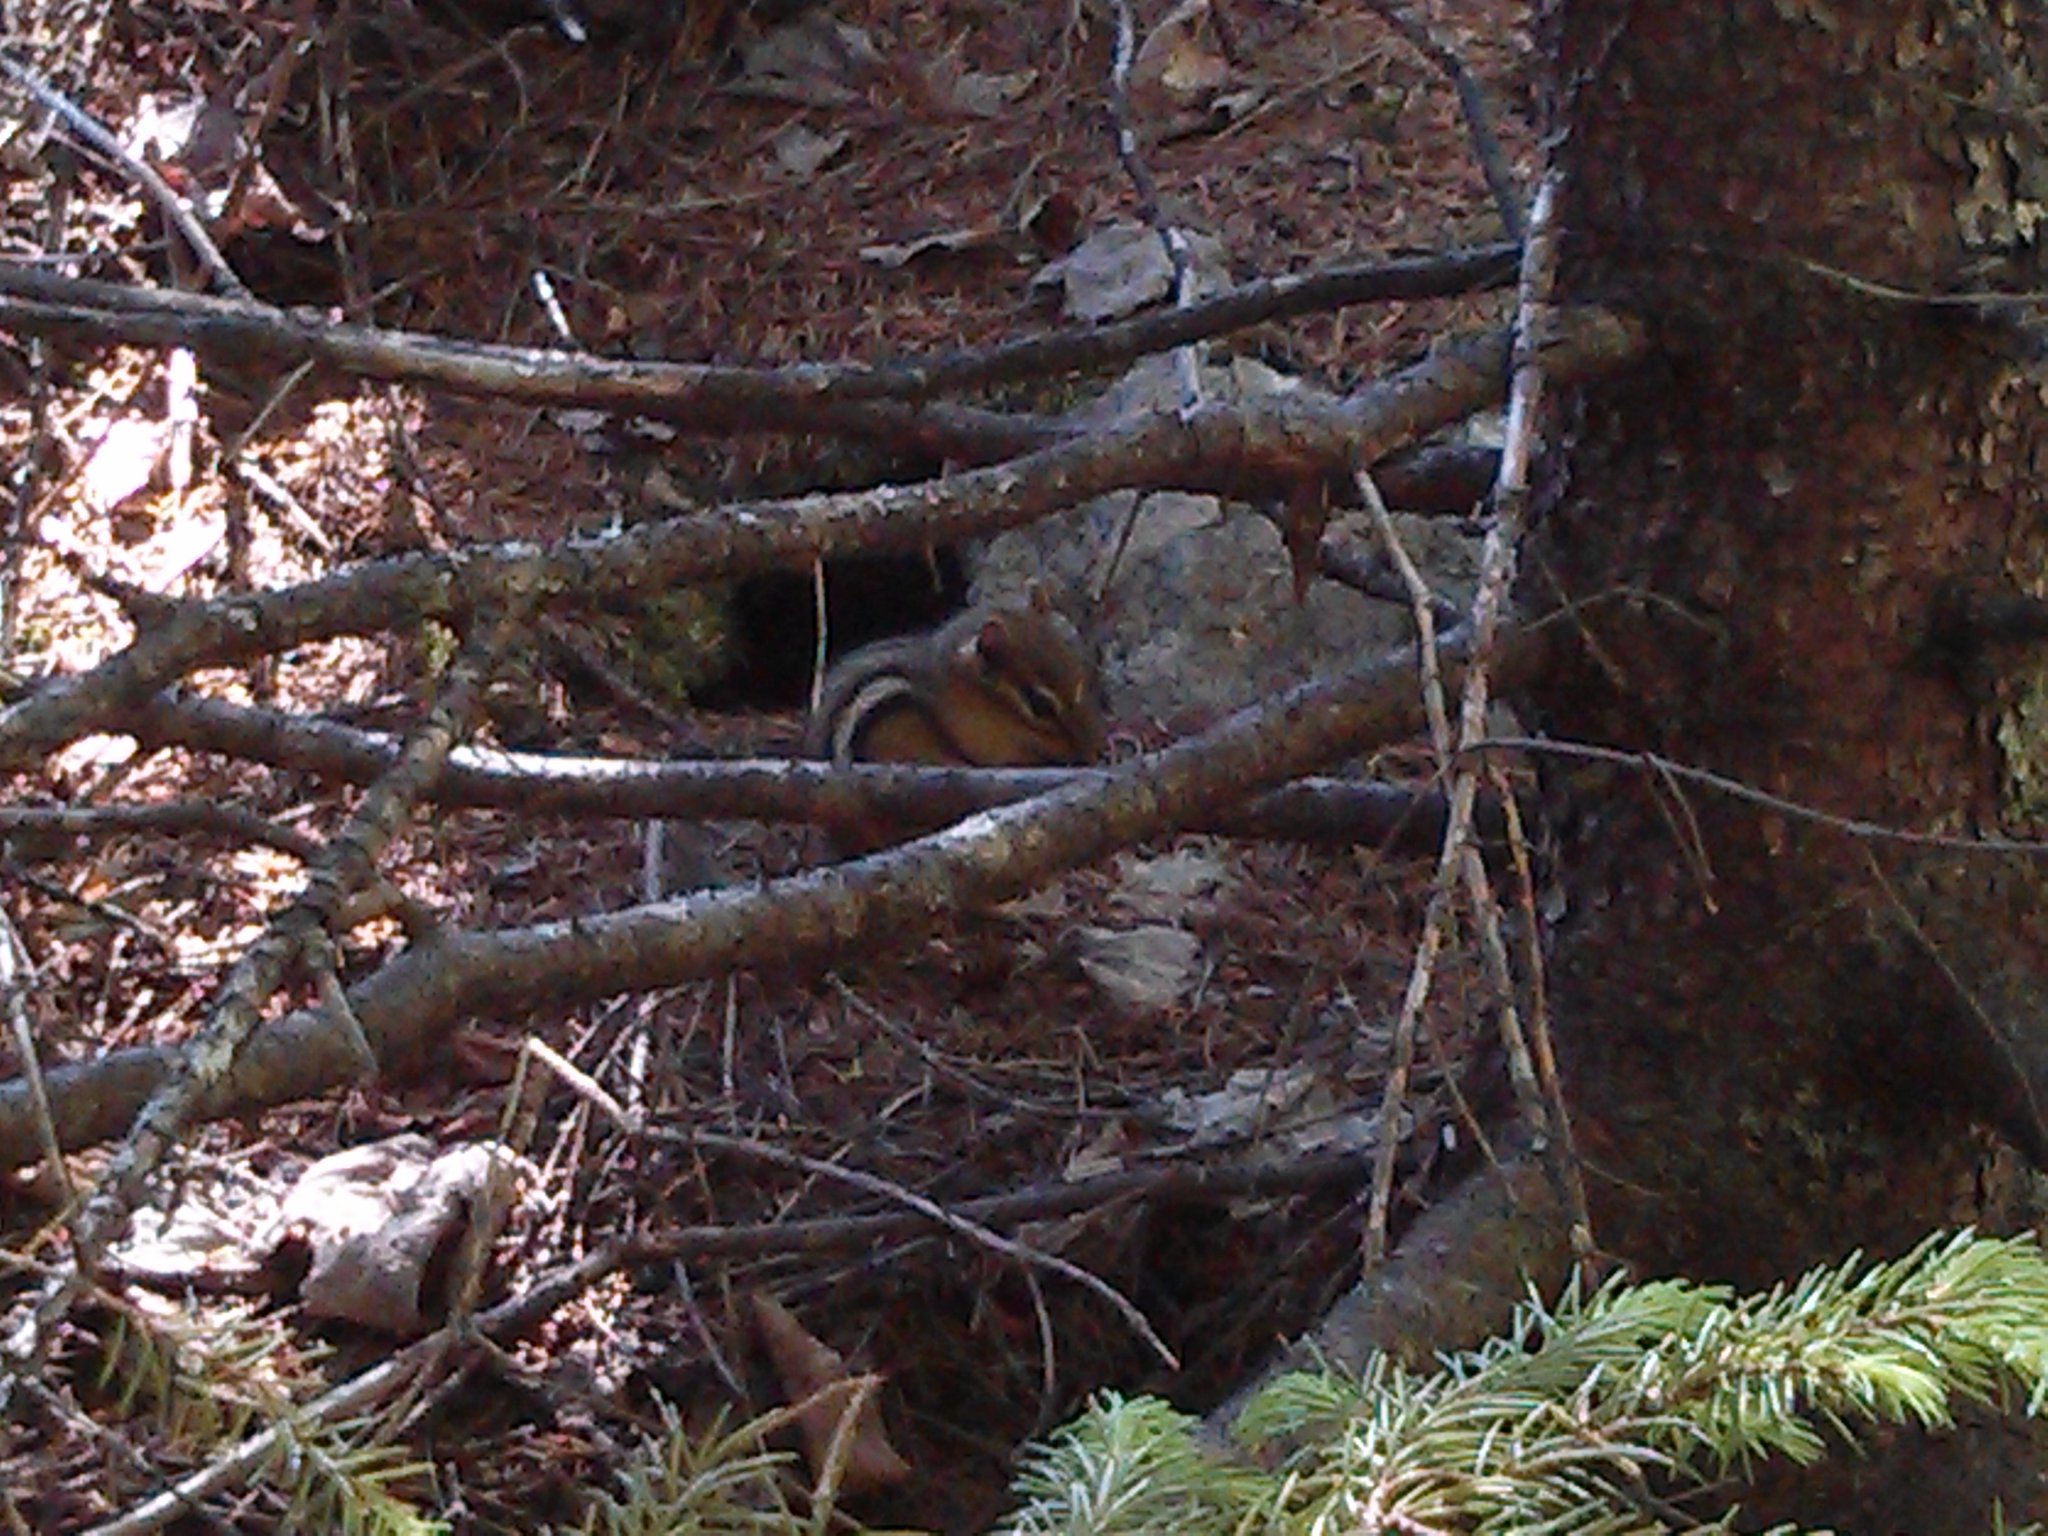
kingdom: Animalia
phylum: Chordata
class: Mammalia
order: Rodentia
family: Sciuridae
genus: Tamias
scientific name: Tamias striatus
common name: Eastern chipmunk
